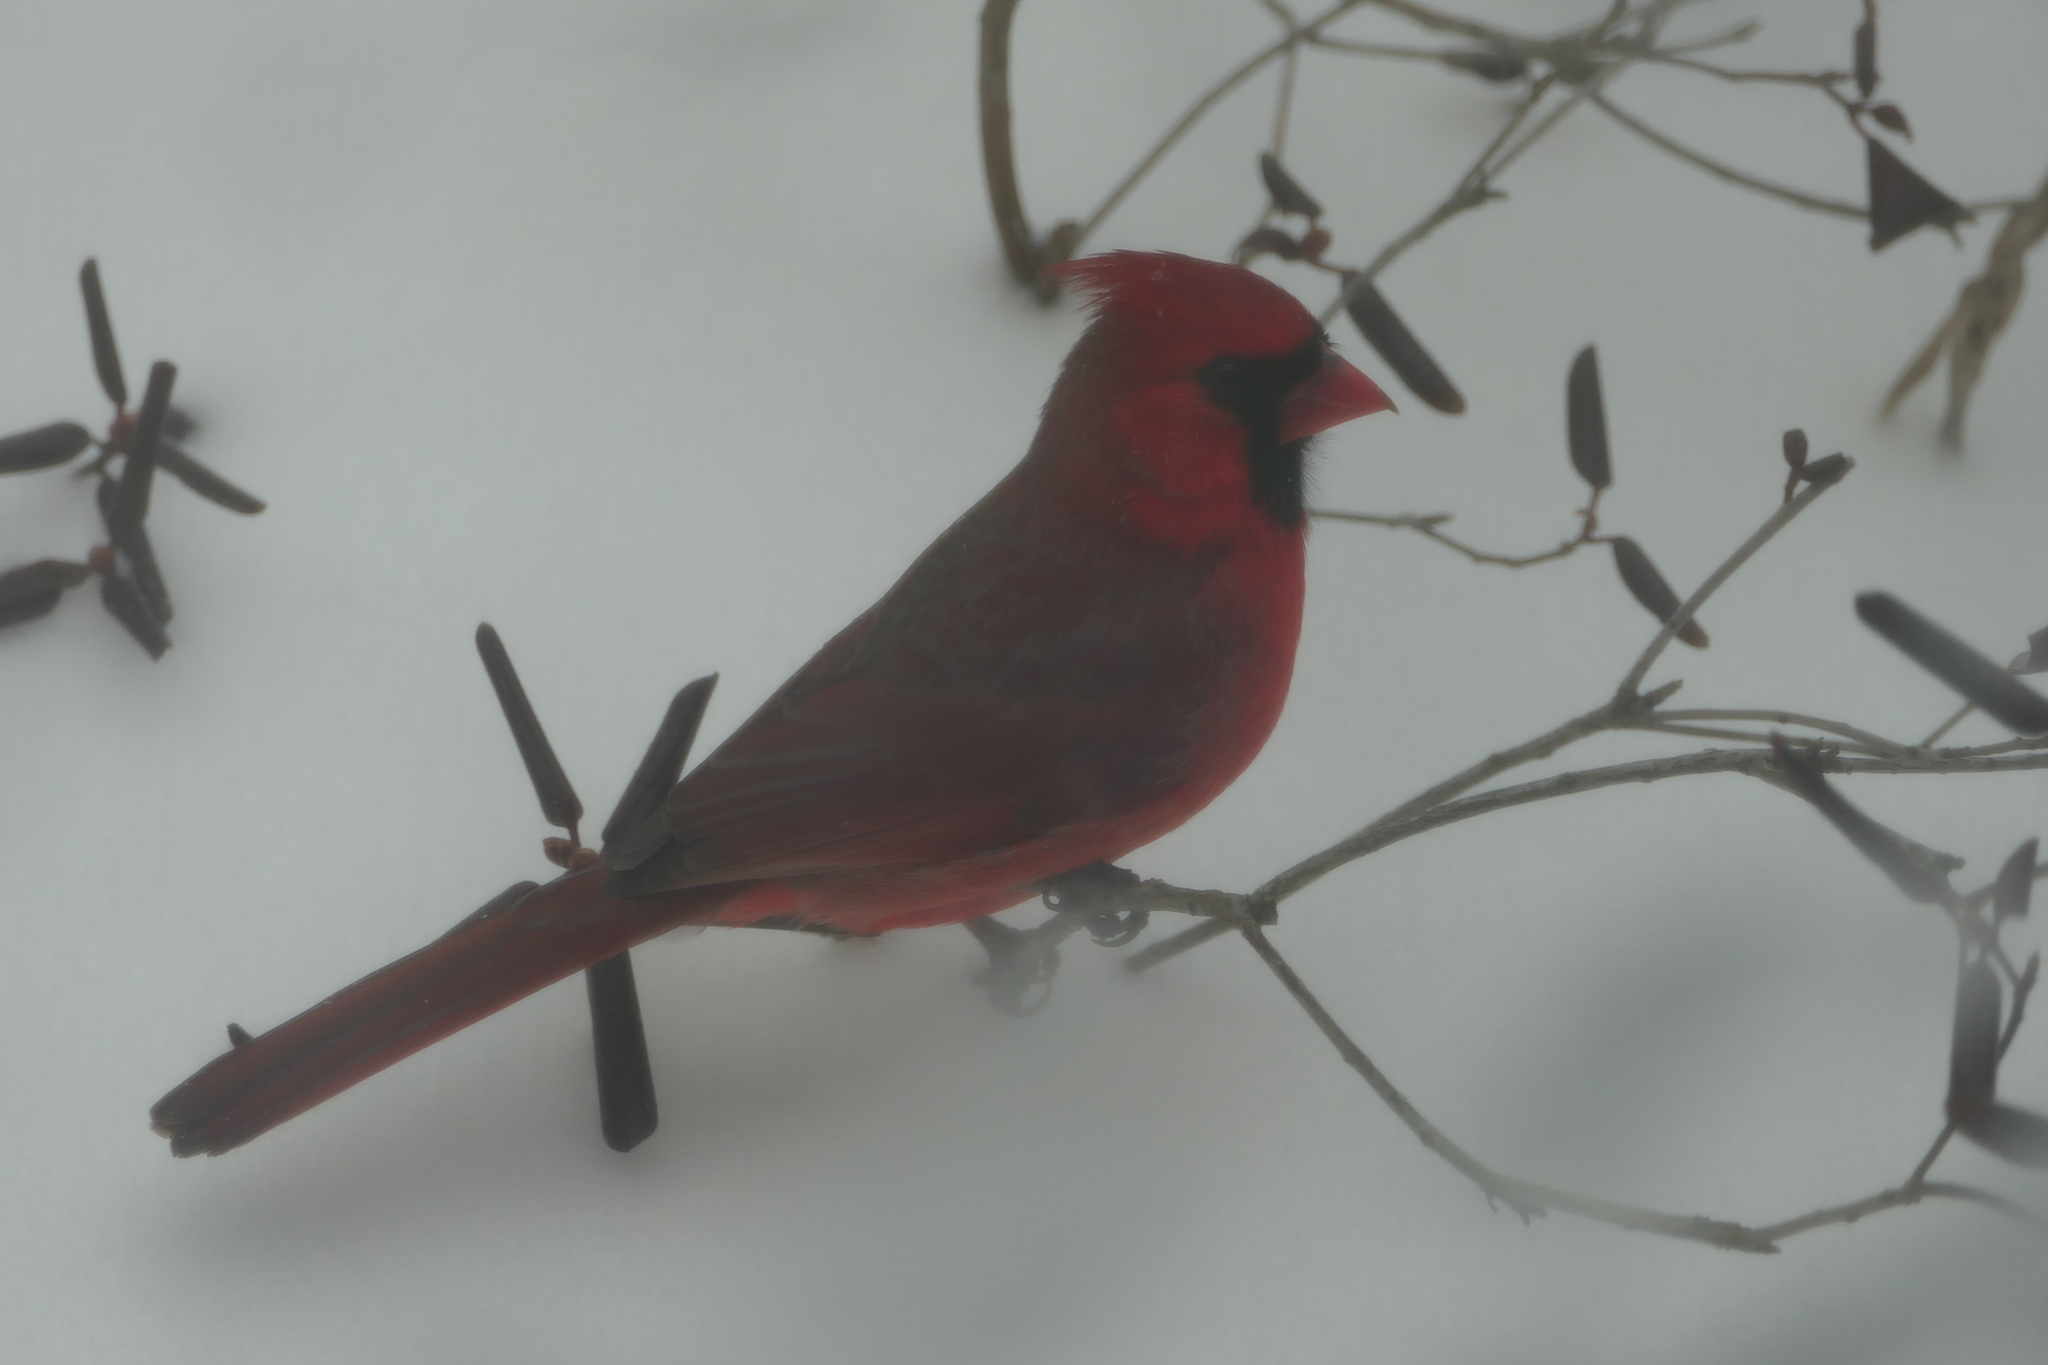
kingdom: Animalia
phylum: Chordata
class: Aves
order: Passeriformes
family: Cardinalidae
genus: Cardinalis
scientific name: Cardinalis cardinalis
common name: Northern cardinal
